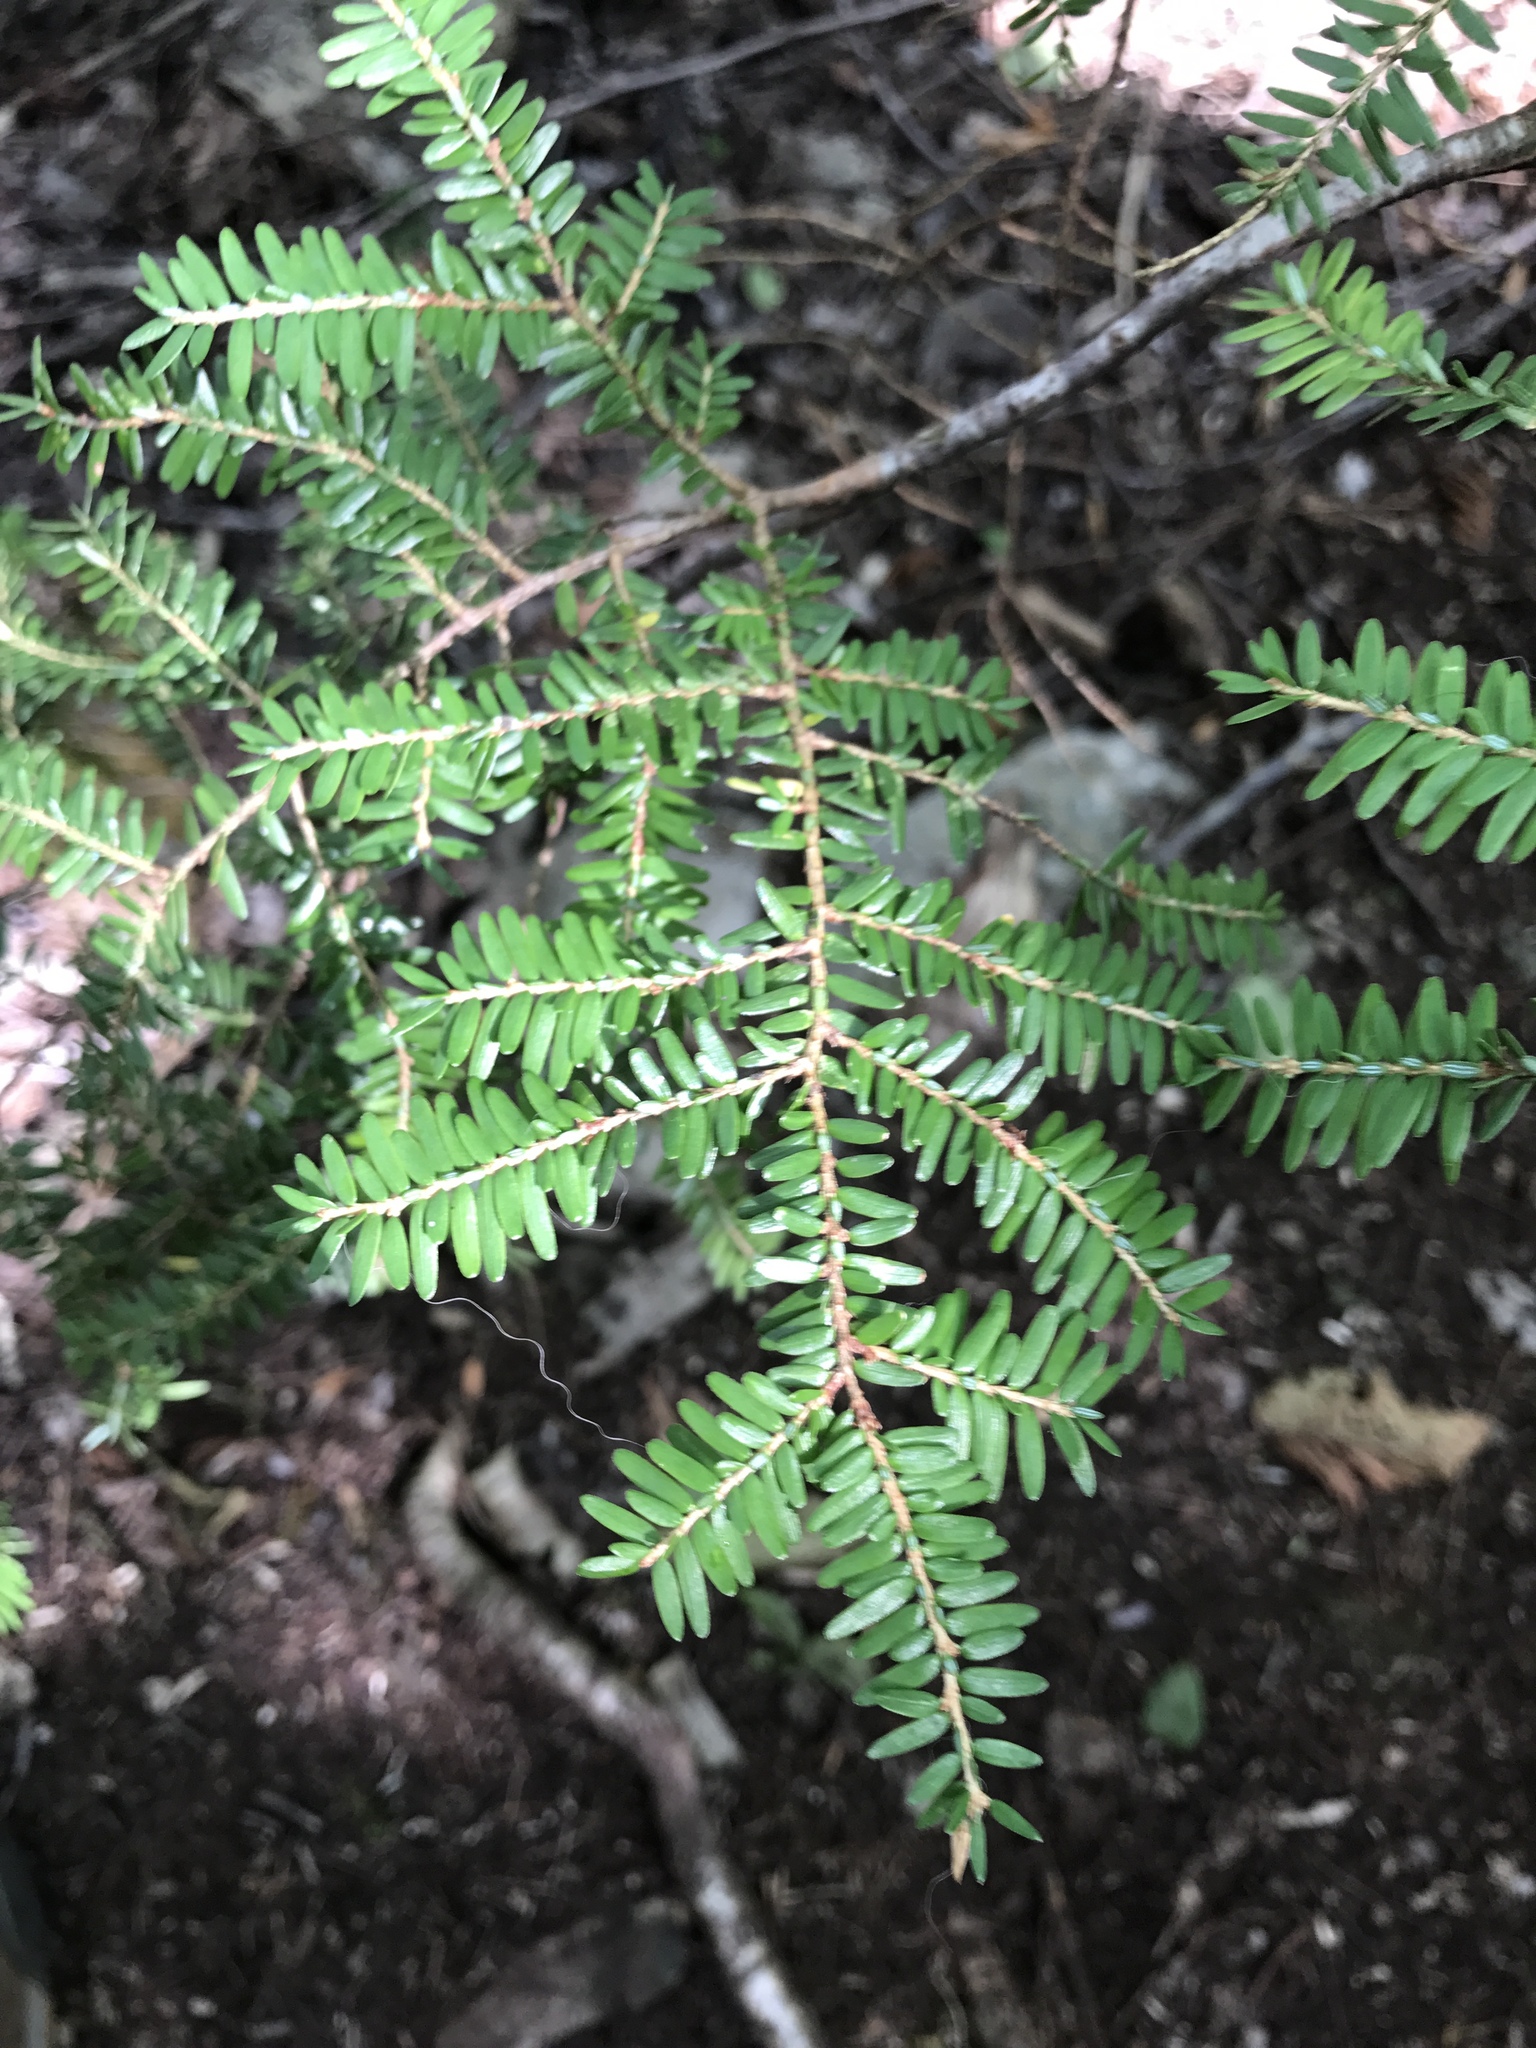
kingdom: Plantae
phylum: Tracheophyta
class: Pinopsida
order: Pinales
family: Pinaceae
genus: Tsuga
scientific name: Tsuga canadensis
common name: Eastern hemlock
